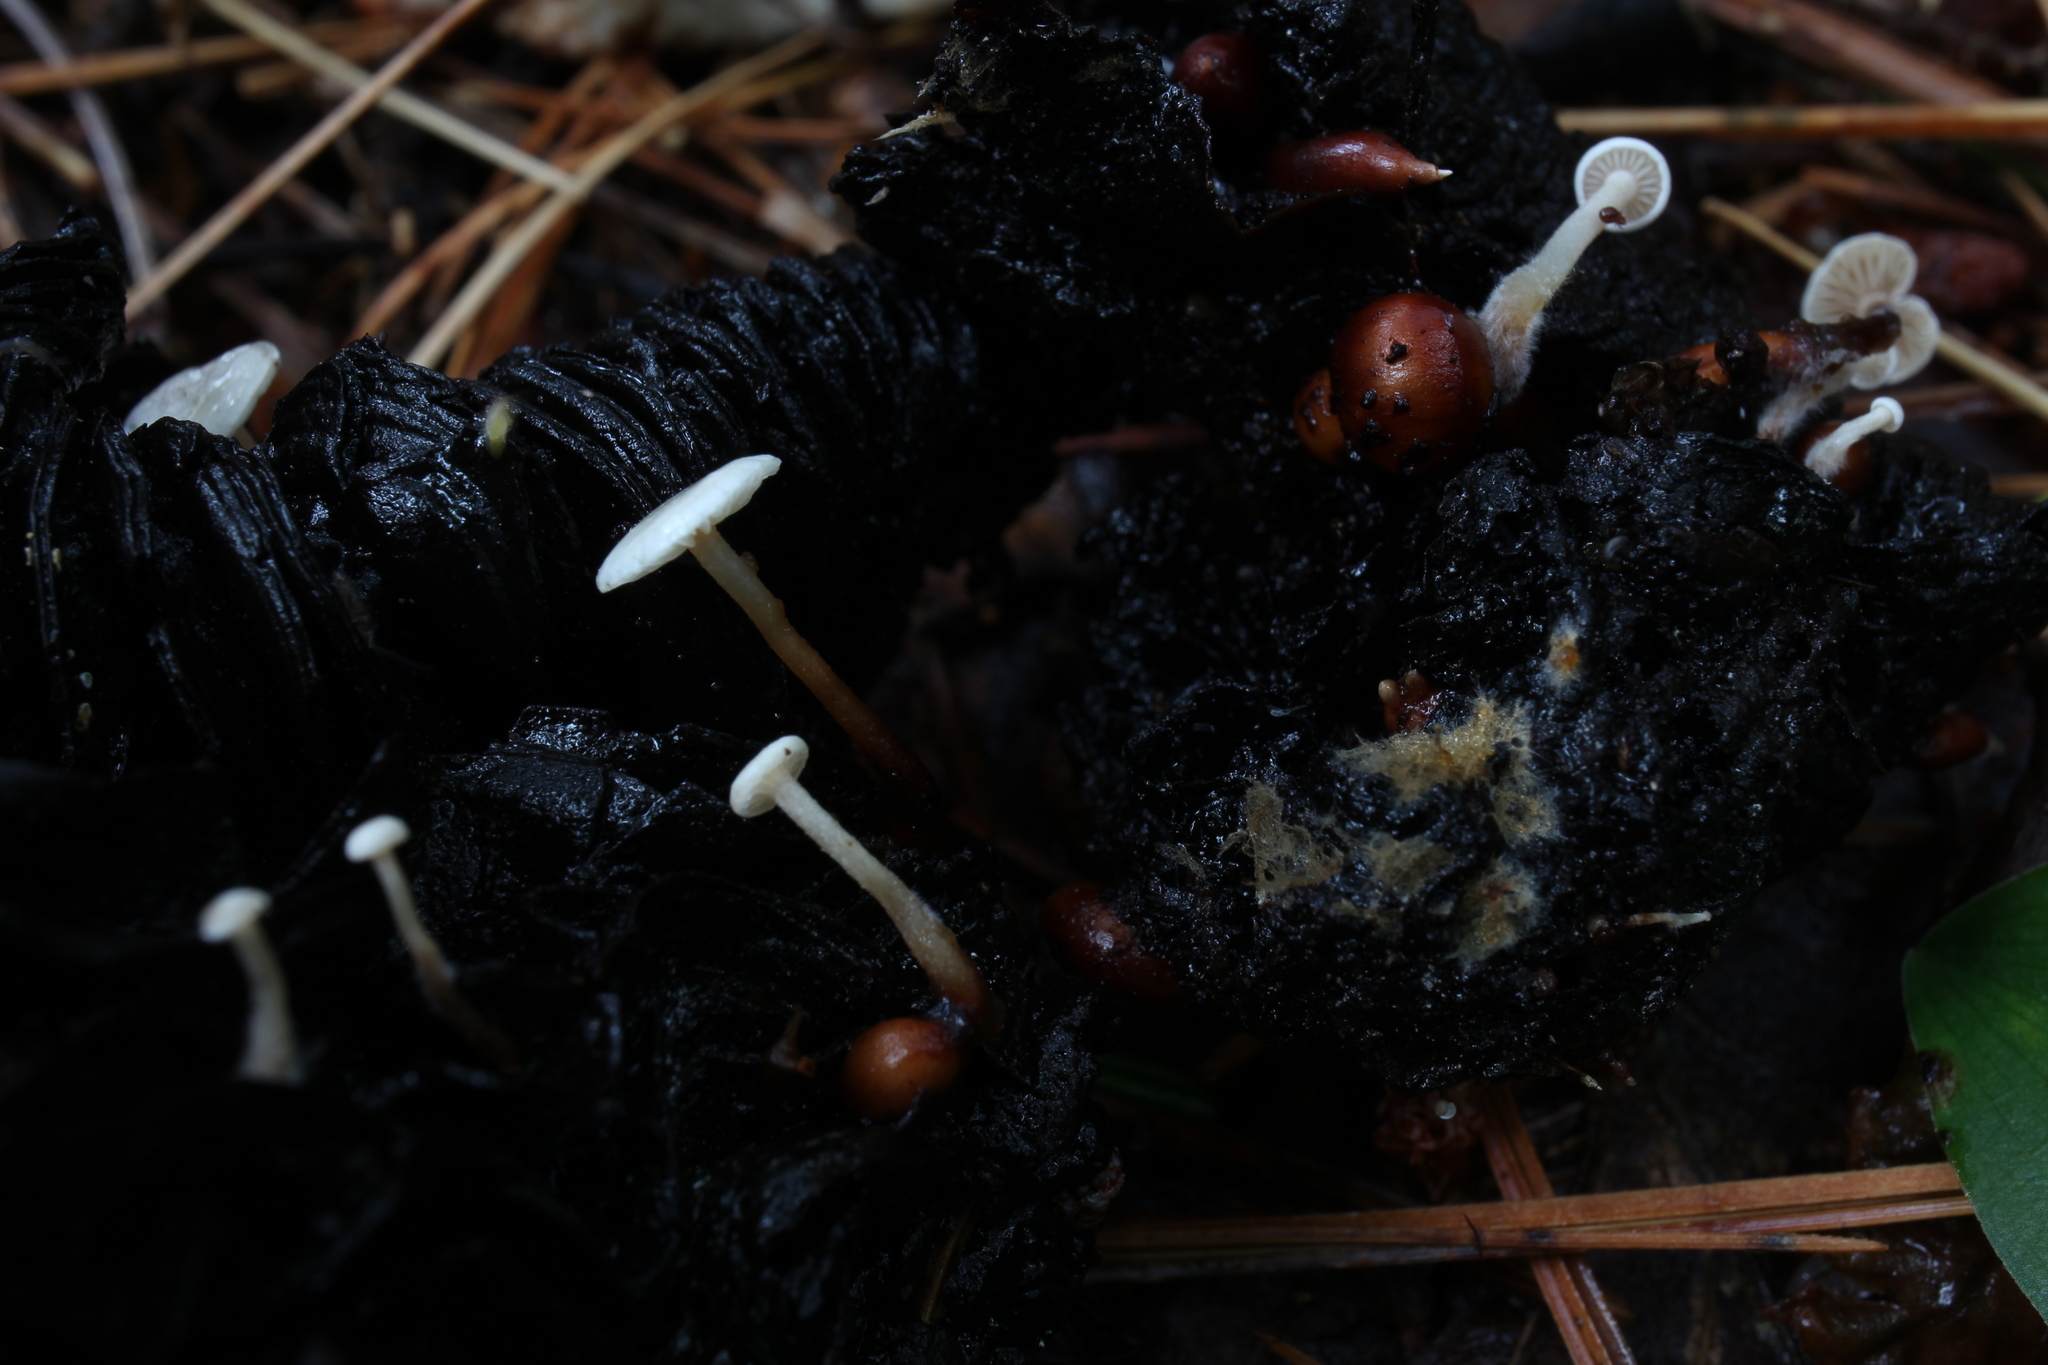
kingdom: Fungi
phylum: Basidiomycota
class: Agaricomycetes
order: Agaricales
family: Tricholomataceae
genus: Collybia
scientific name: Collybia cookei
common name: Splitpea shanklet
